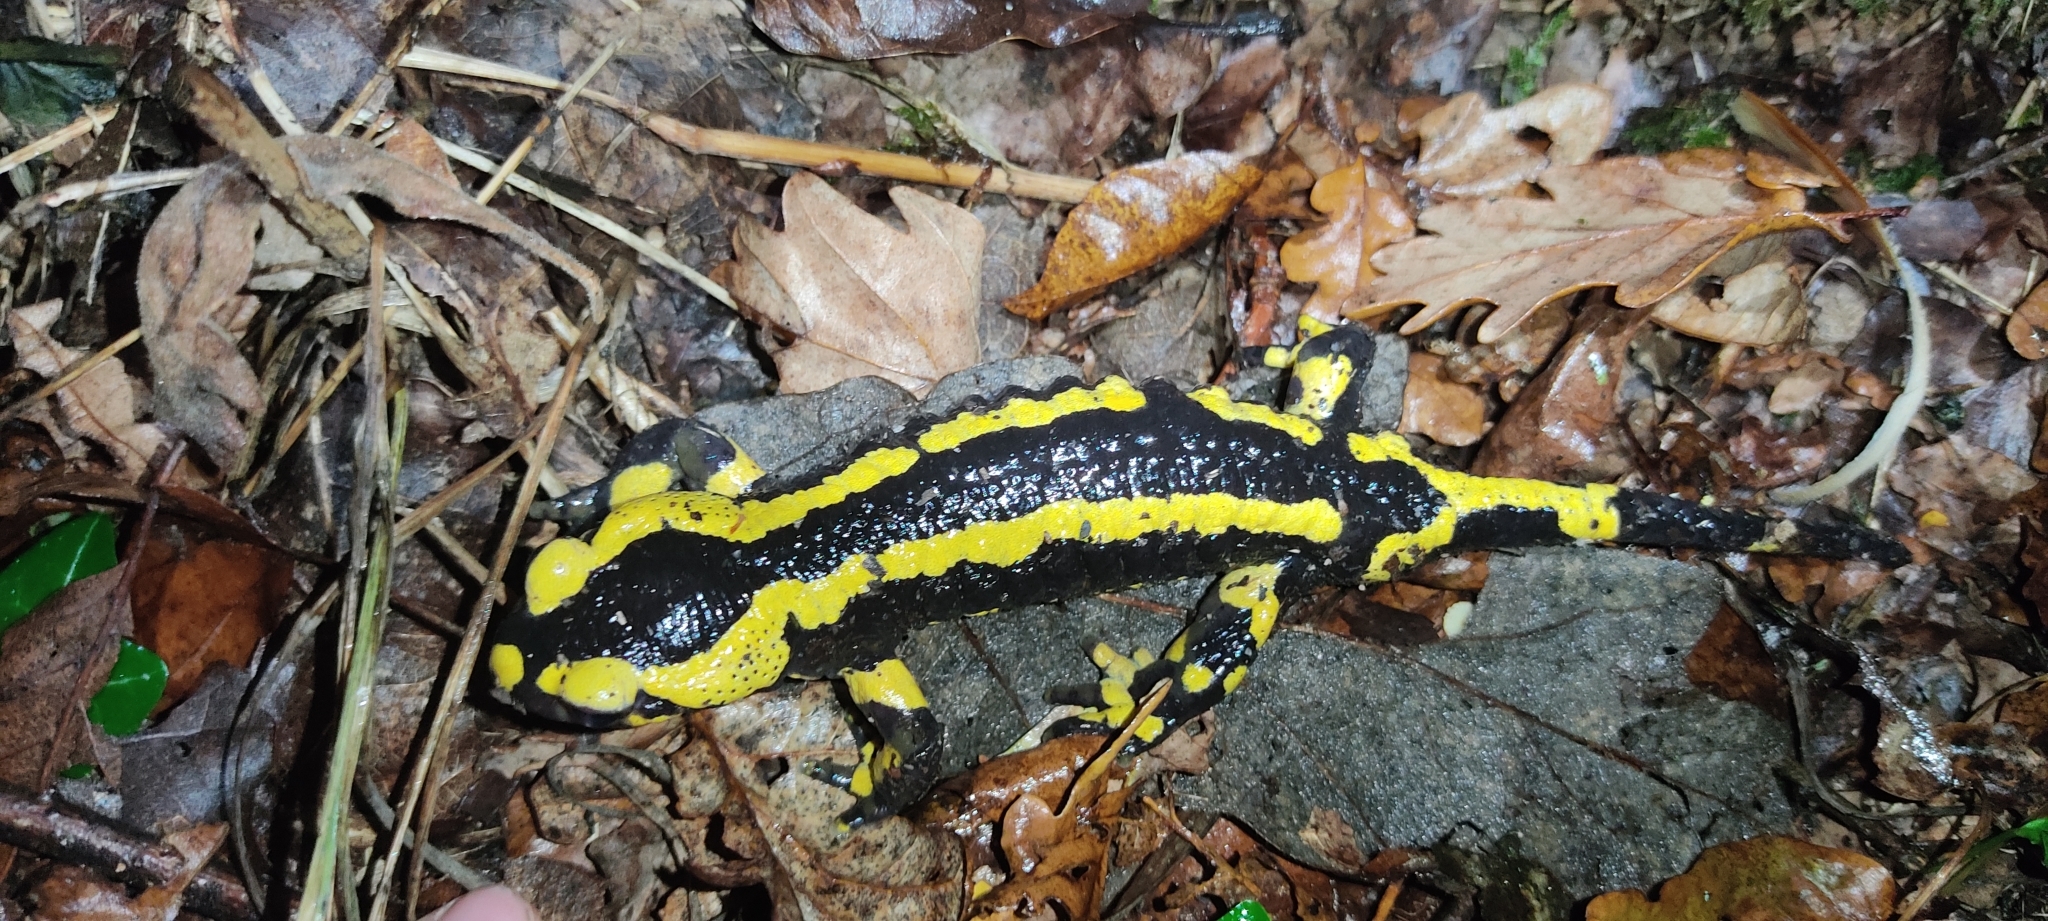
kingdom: Animalia
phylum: Chordata
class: Amphibia
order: Caudata
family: Salamandridae
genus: Salamandra
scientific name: Salamandra salamandra
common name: Fire salamander
